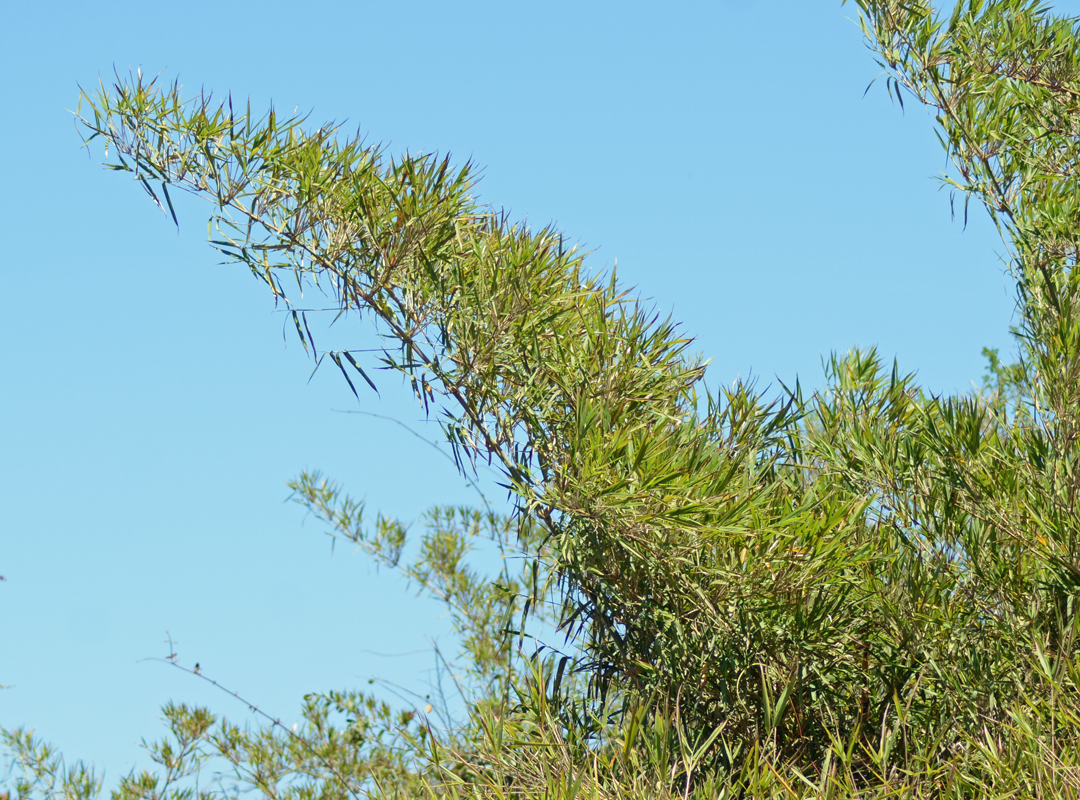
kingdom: Plantae
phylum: Tracheophyta
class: Liliopsida
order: Poales
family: Poaceae
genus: Guadua
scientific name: Guadua paniculata
